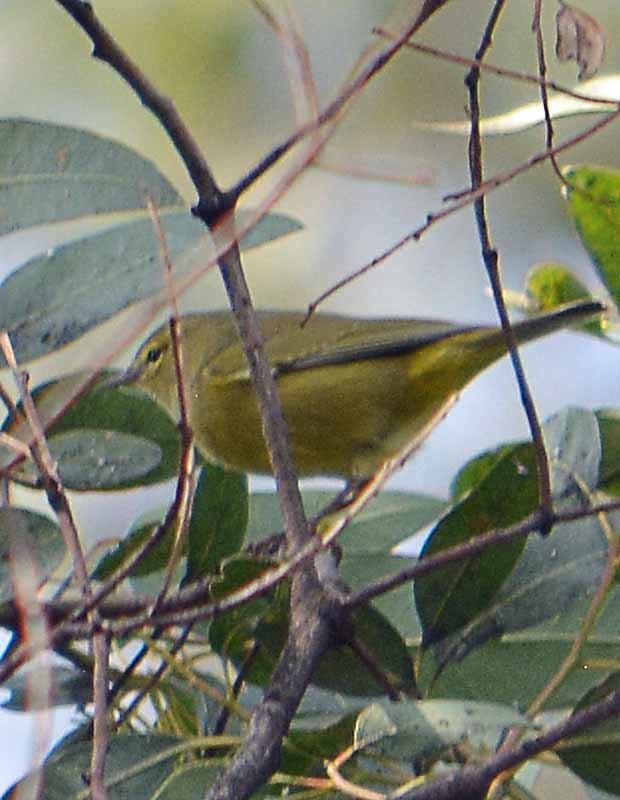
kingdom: Animalia
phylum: Chordata
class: Aves
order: Passeriformes
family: Parulidae
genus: Leiothlypis
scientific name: Leiothlypis celata
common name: Orange-crowned warbler
